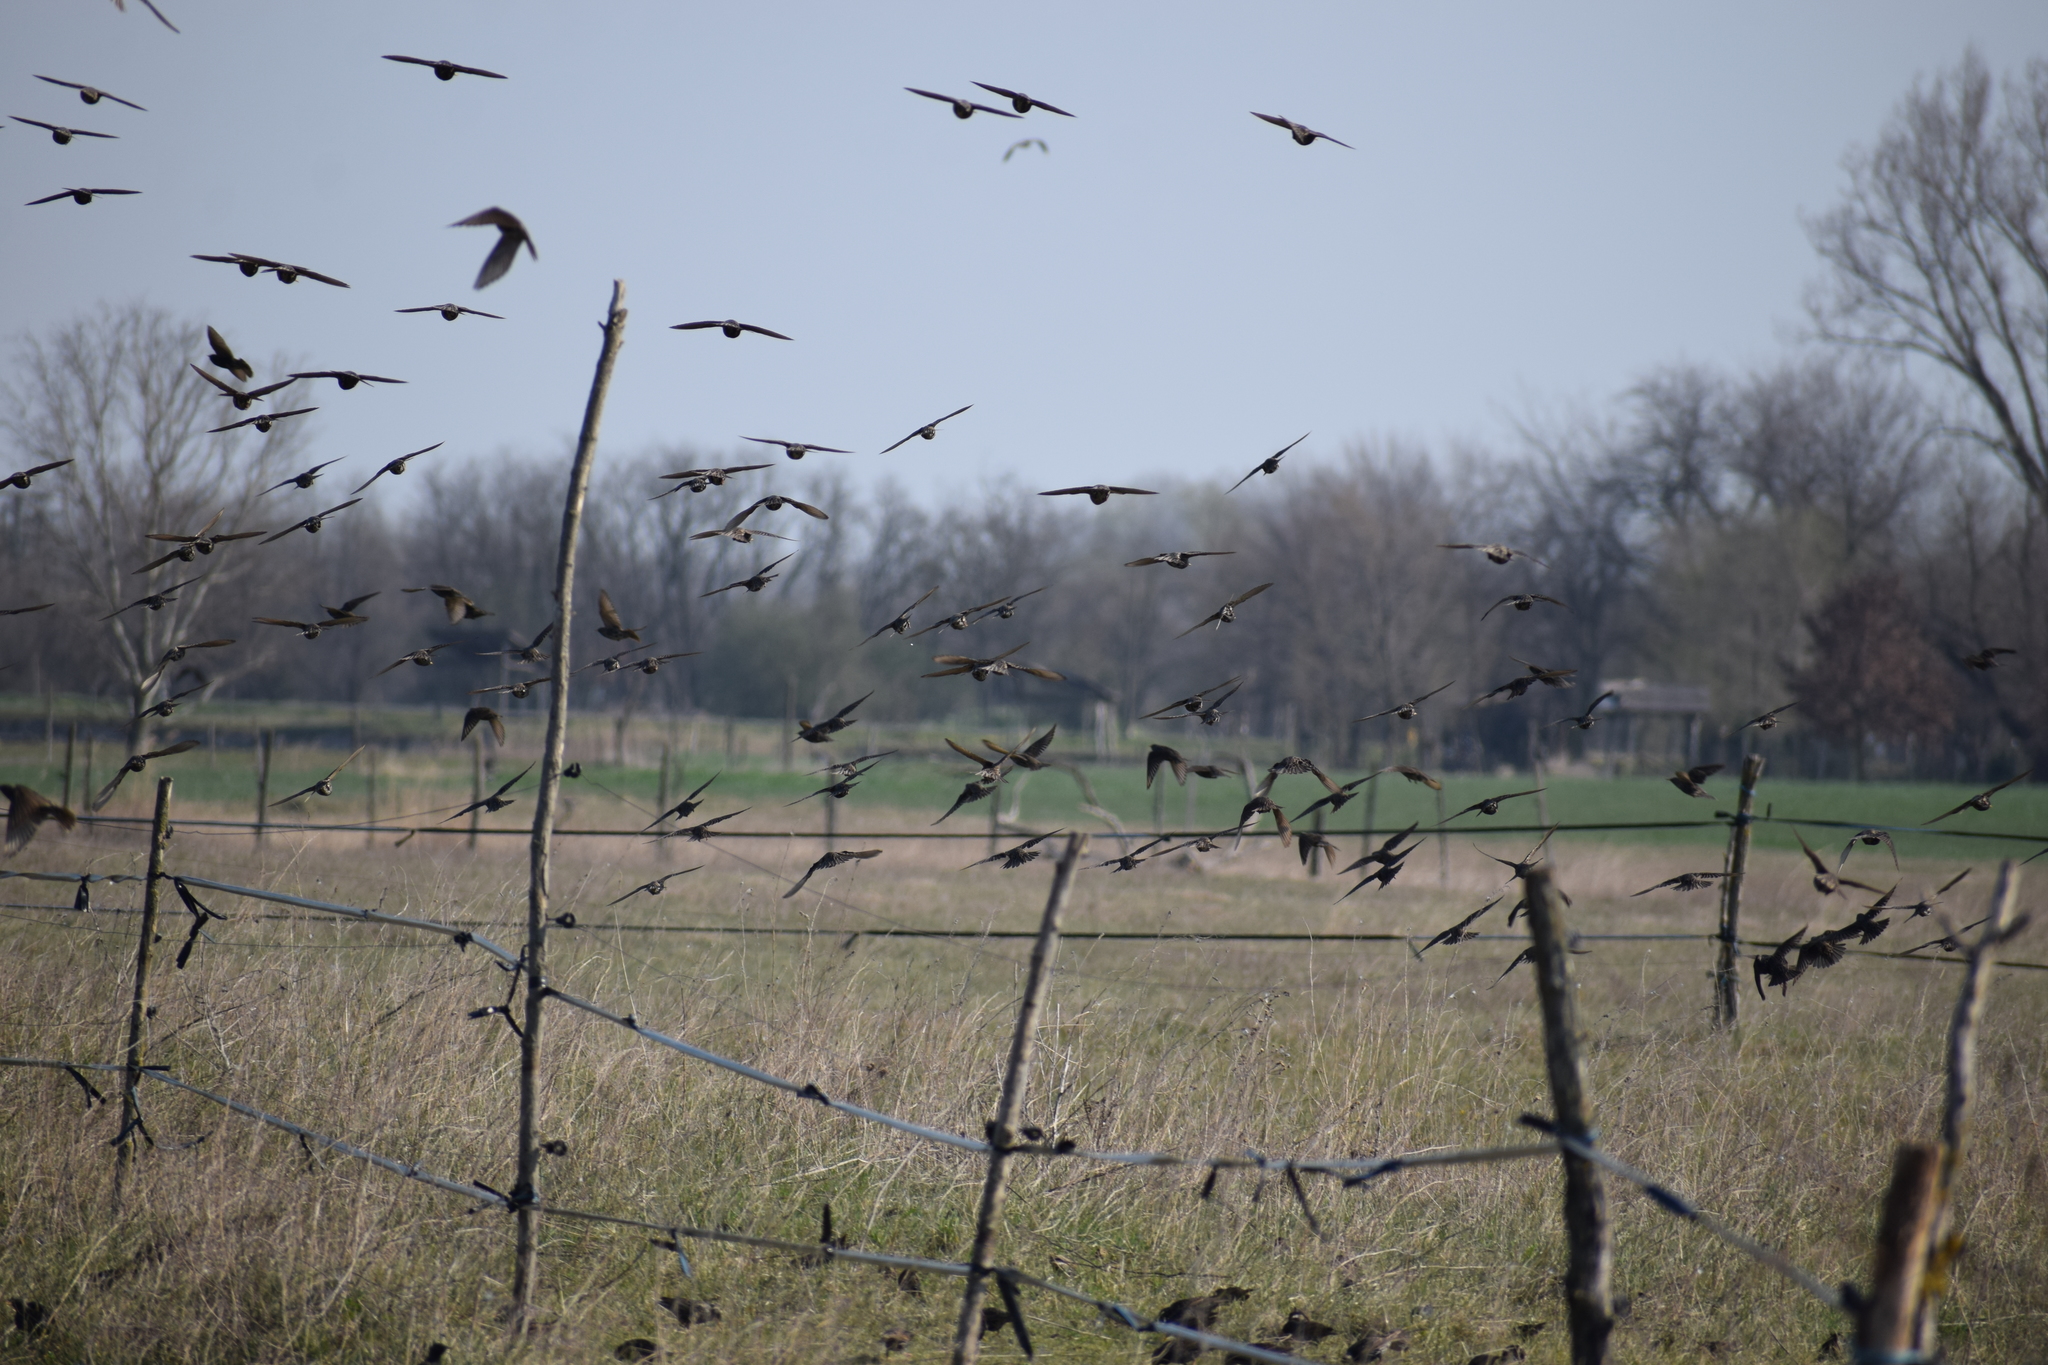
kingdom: Animalia
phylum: Chordata
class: Aves
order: Passeriformes
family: Sturnidae
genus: Sturnus
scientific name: Sturnus vulgaris
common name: Common starling
